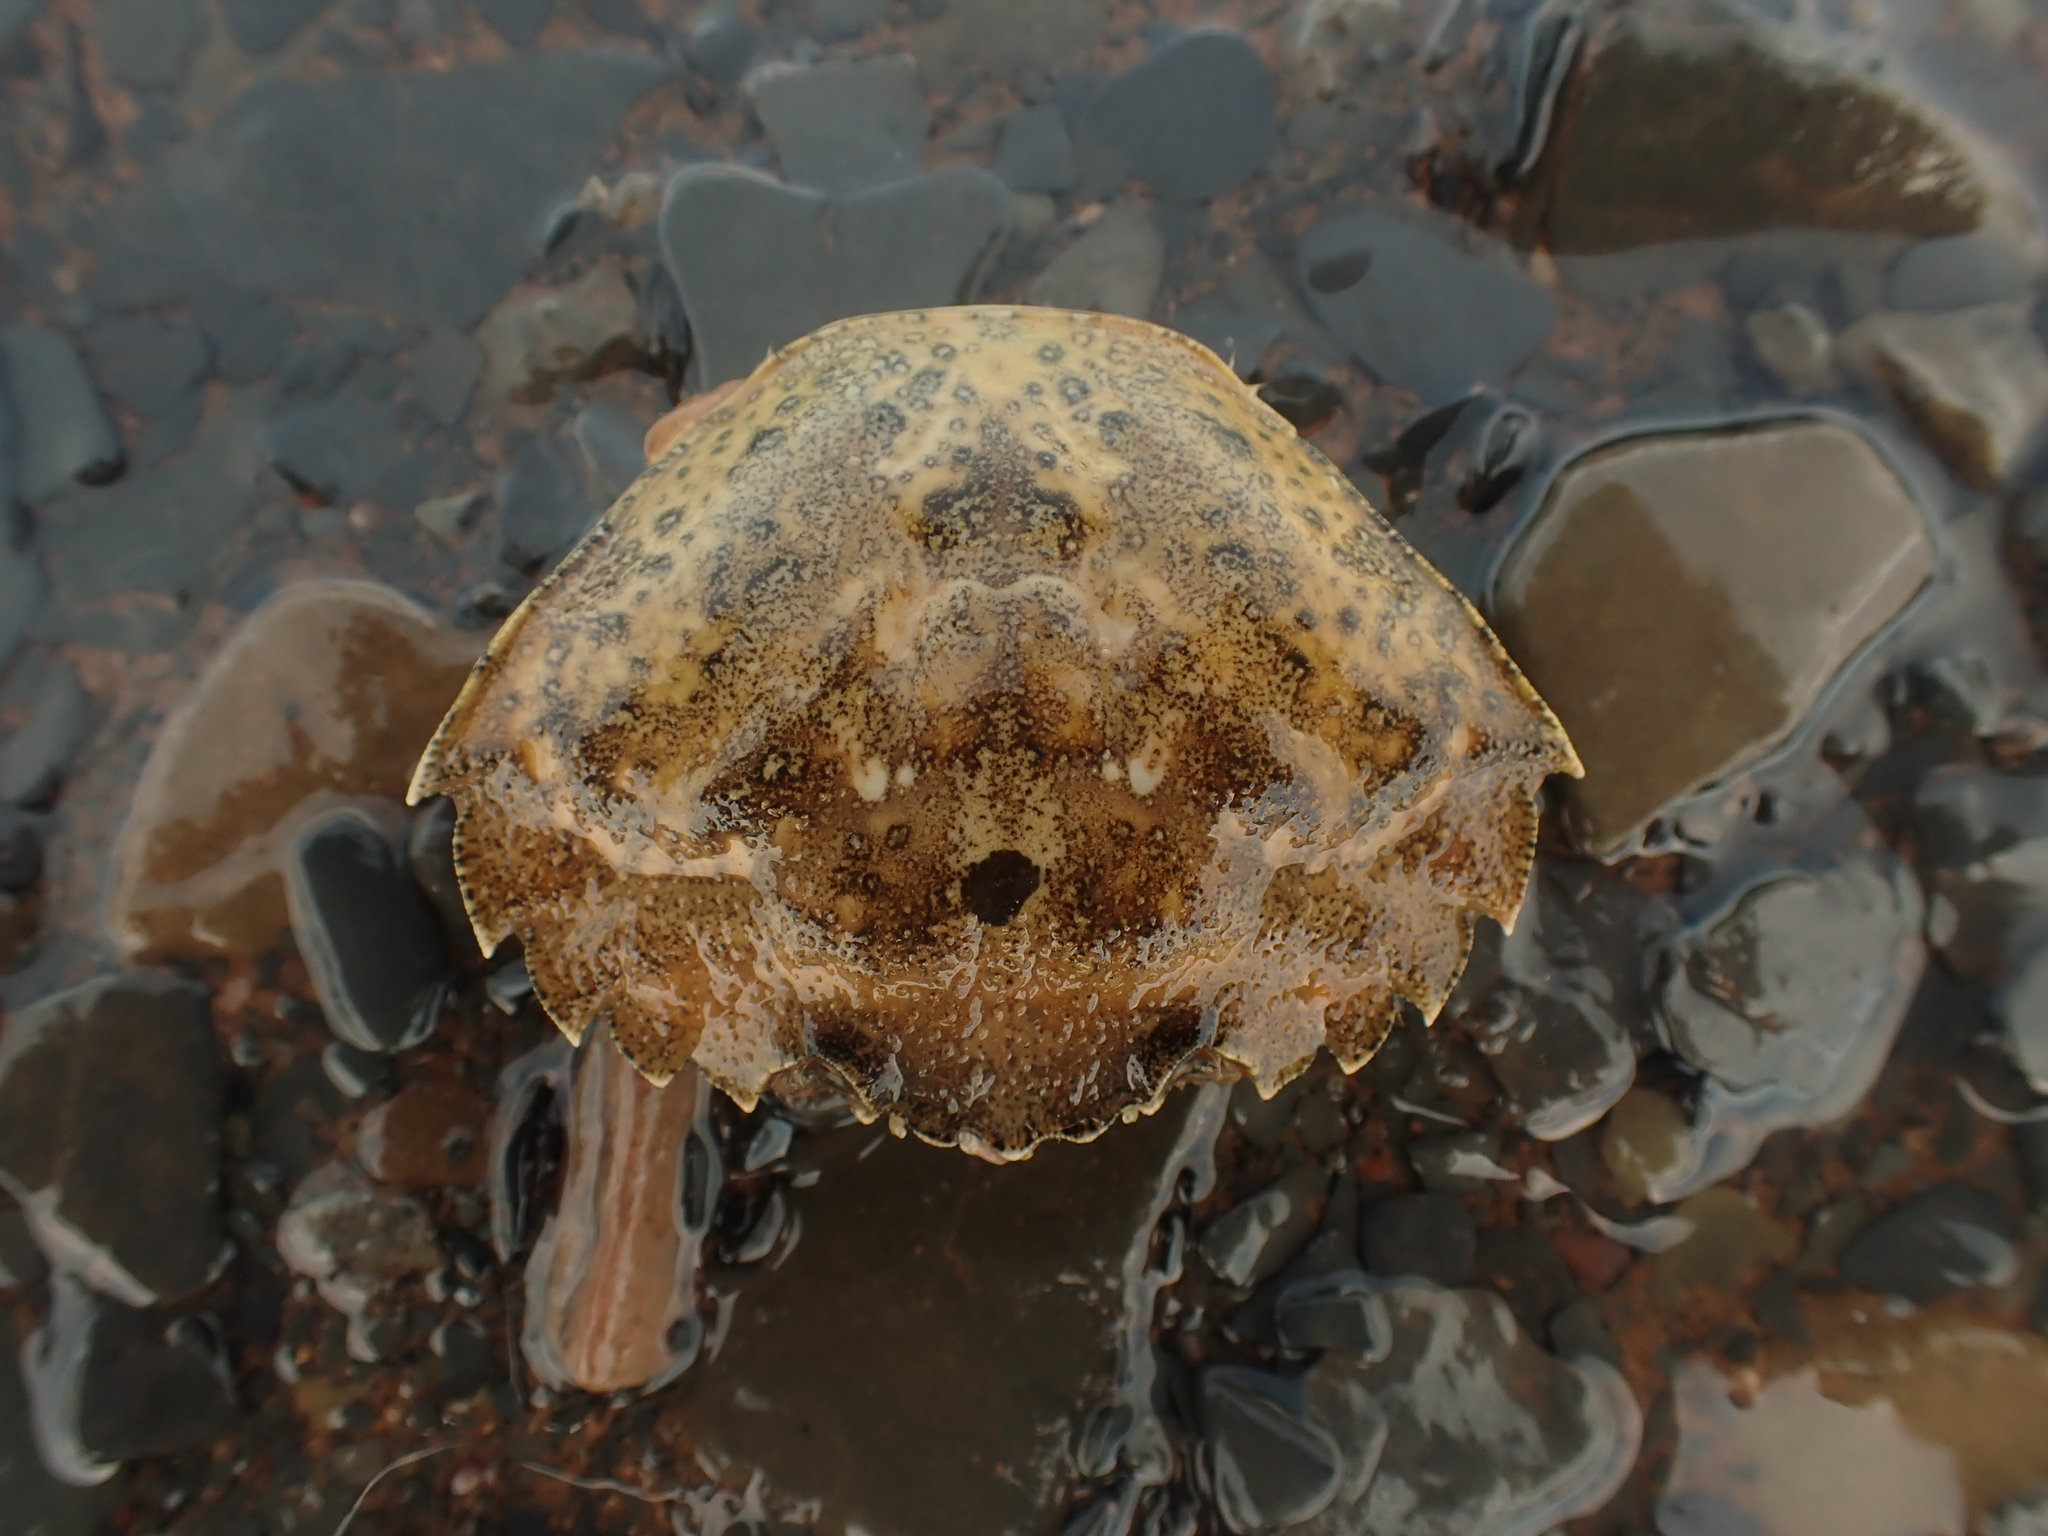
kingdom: Animalia
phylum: Arthropoda
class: Malacostraca
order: Decapoda
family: Carcinidae
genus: Carcinus
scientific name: Carcinus maenas
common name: European green crab
